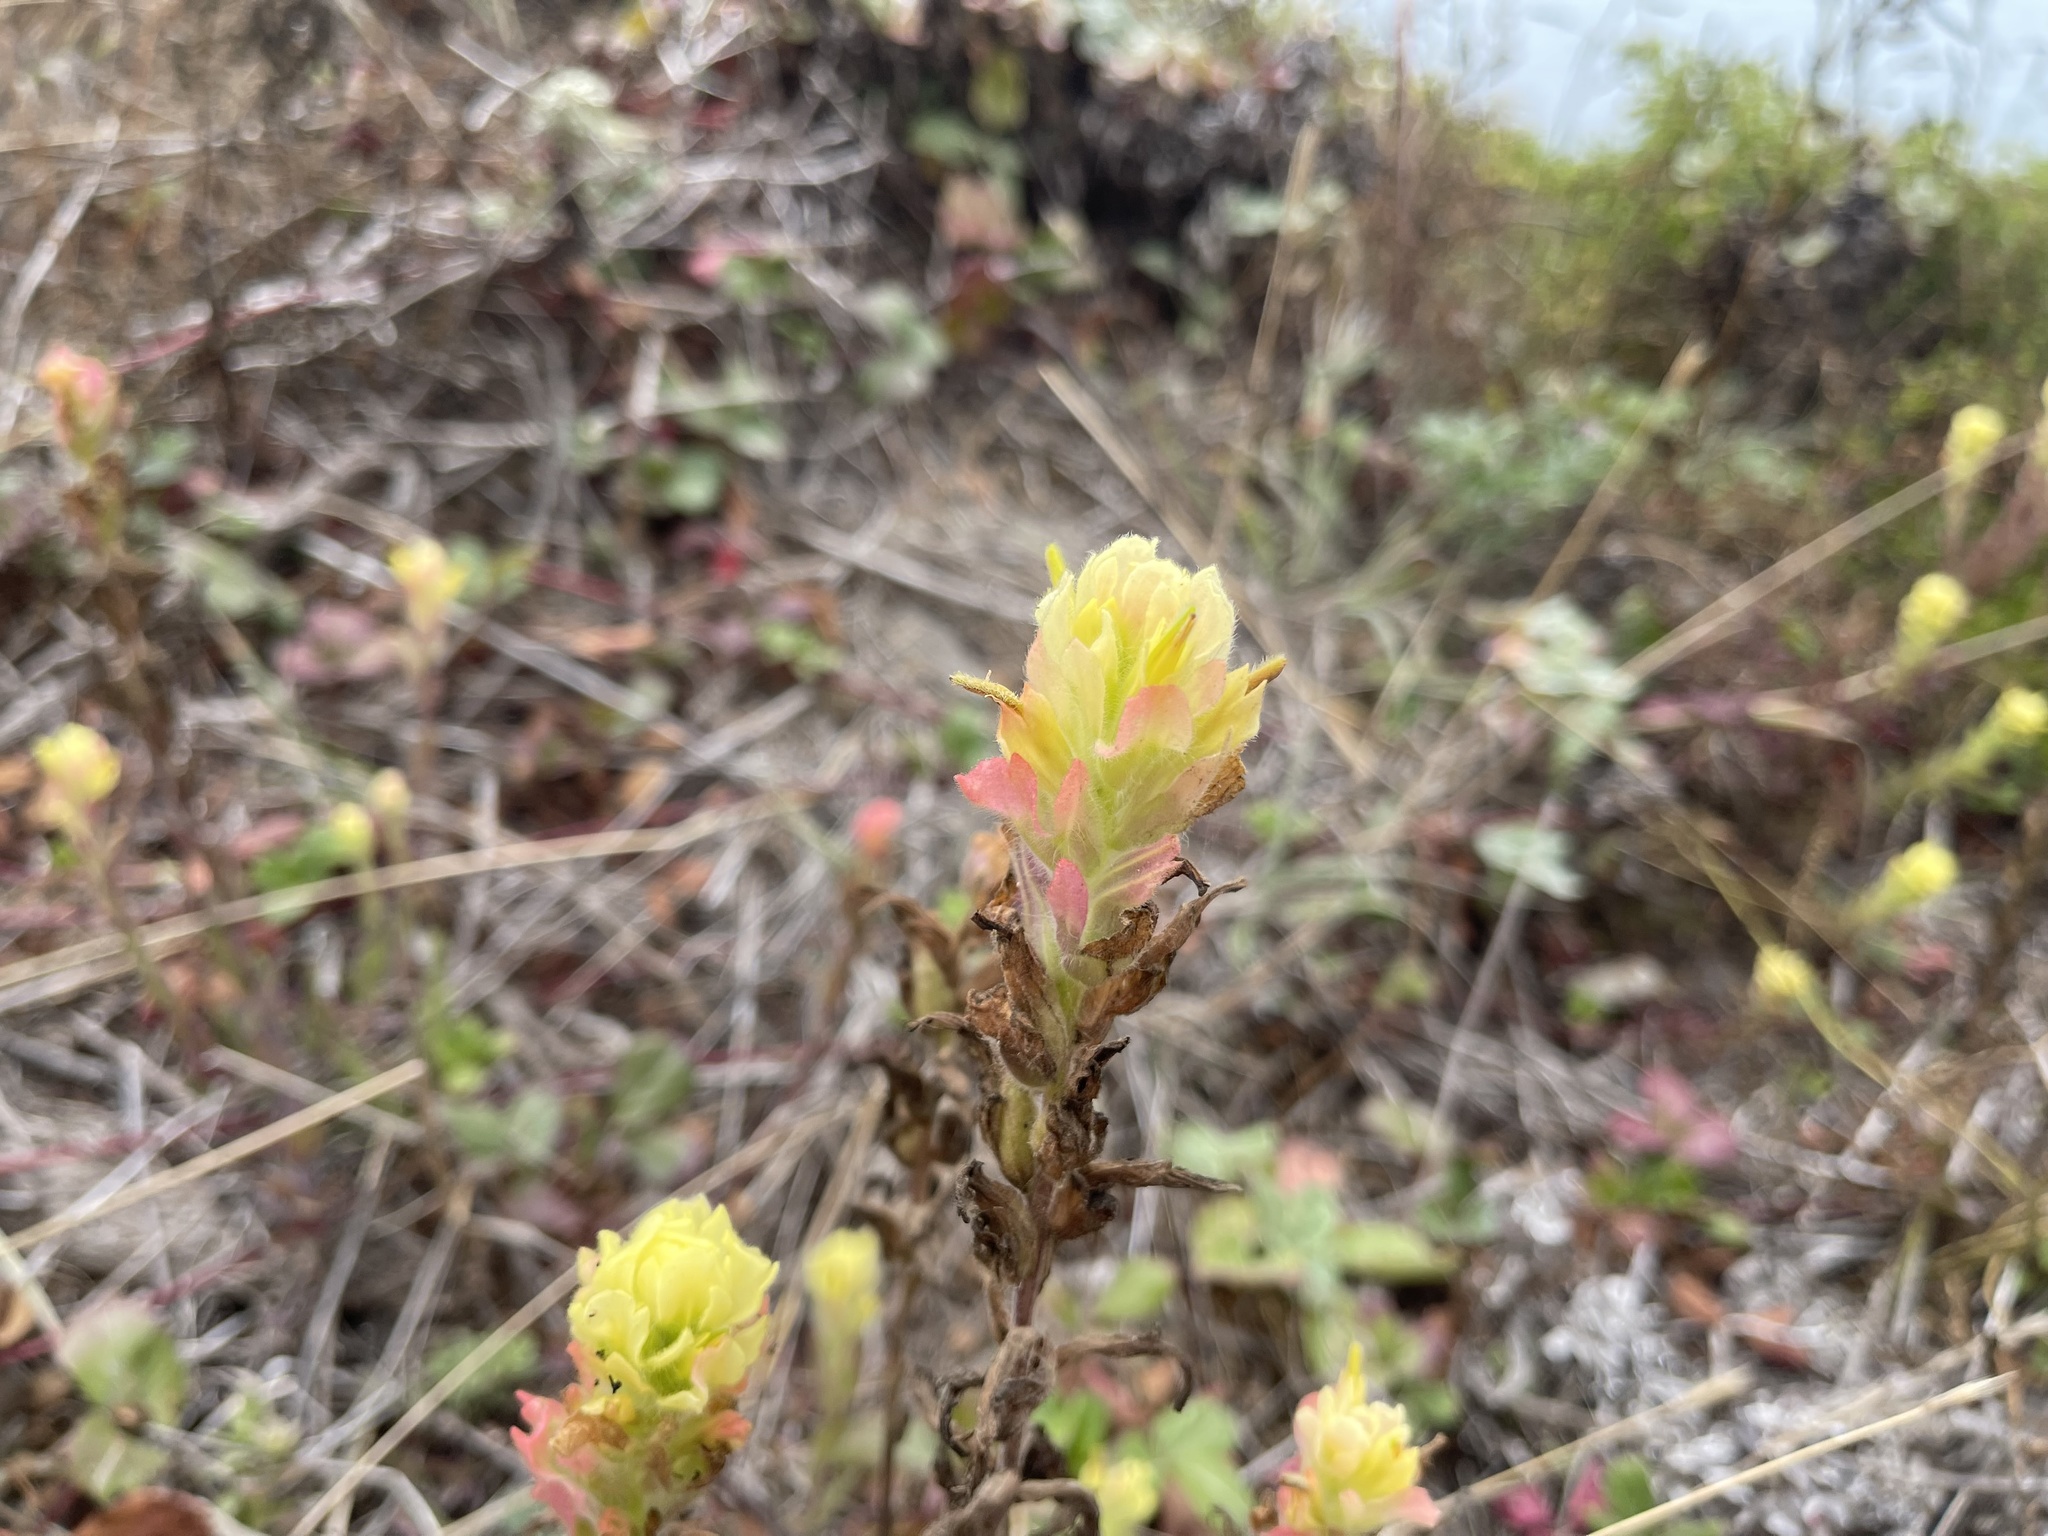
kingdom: Plantae
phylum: Tracheophyta
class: Magnoliopsida
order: Lamiales
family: Orobanchaceae
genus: Castilleja
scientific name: Castilleja wightii
